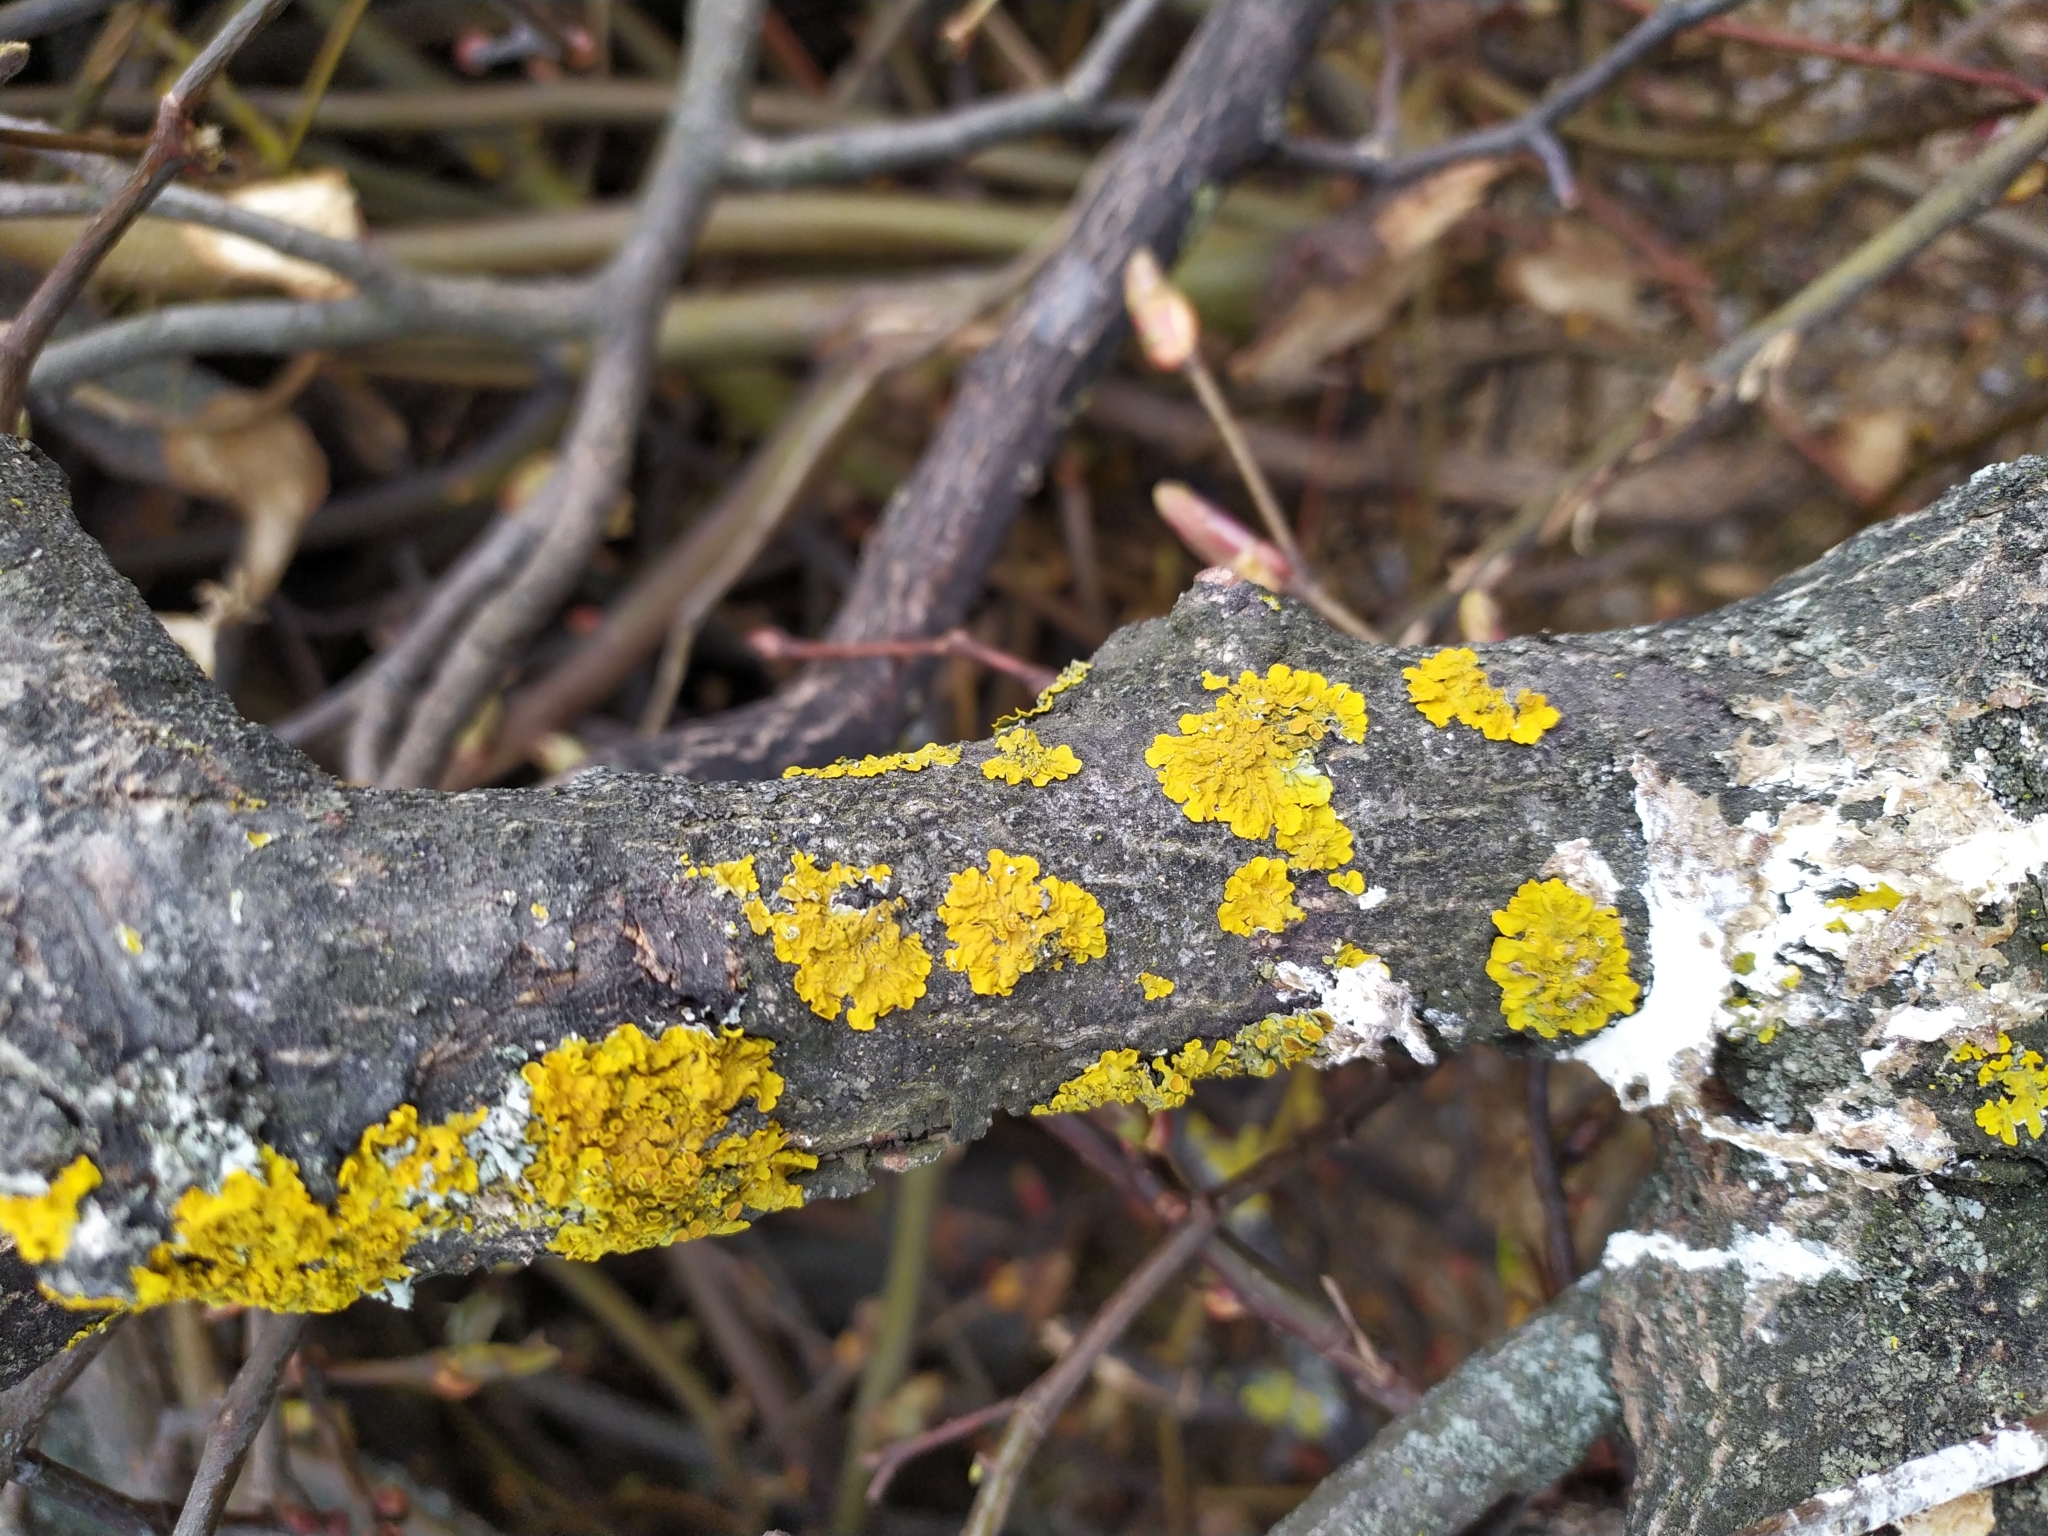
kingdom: Fungi
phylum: Ascomycota
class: Lecanoromycetes
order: Teloschistales
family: Teloschistaceae
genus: Xanthoria
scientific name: Xanthoria parietina
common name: Common orange lichen
